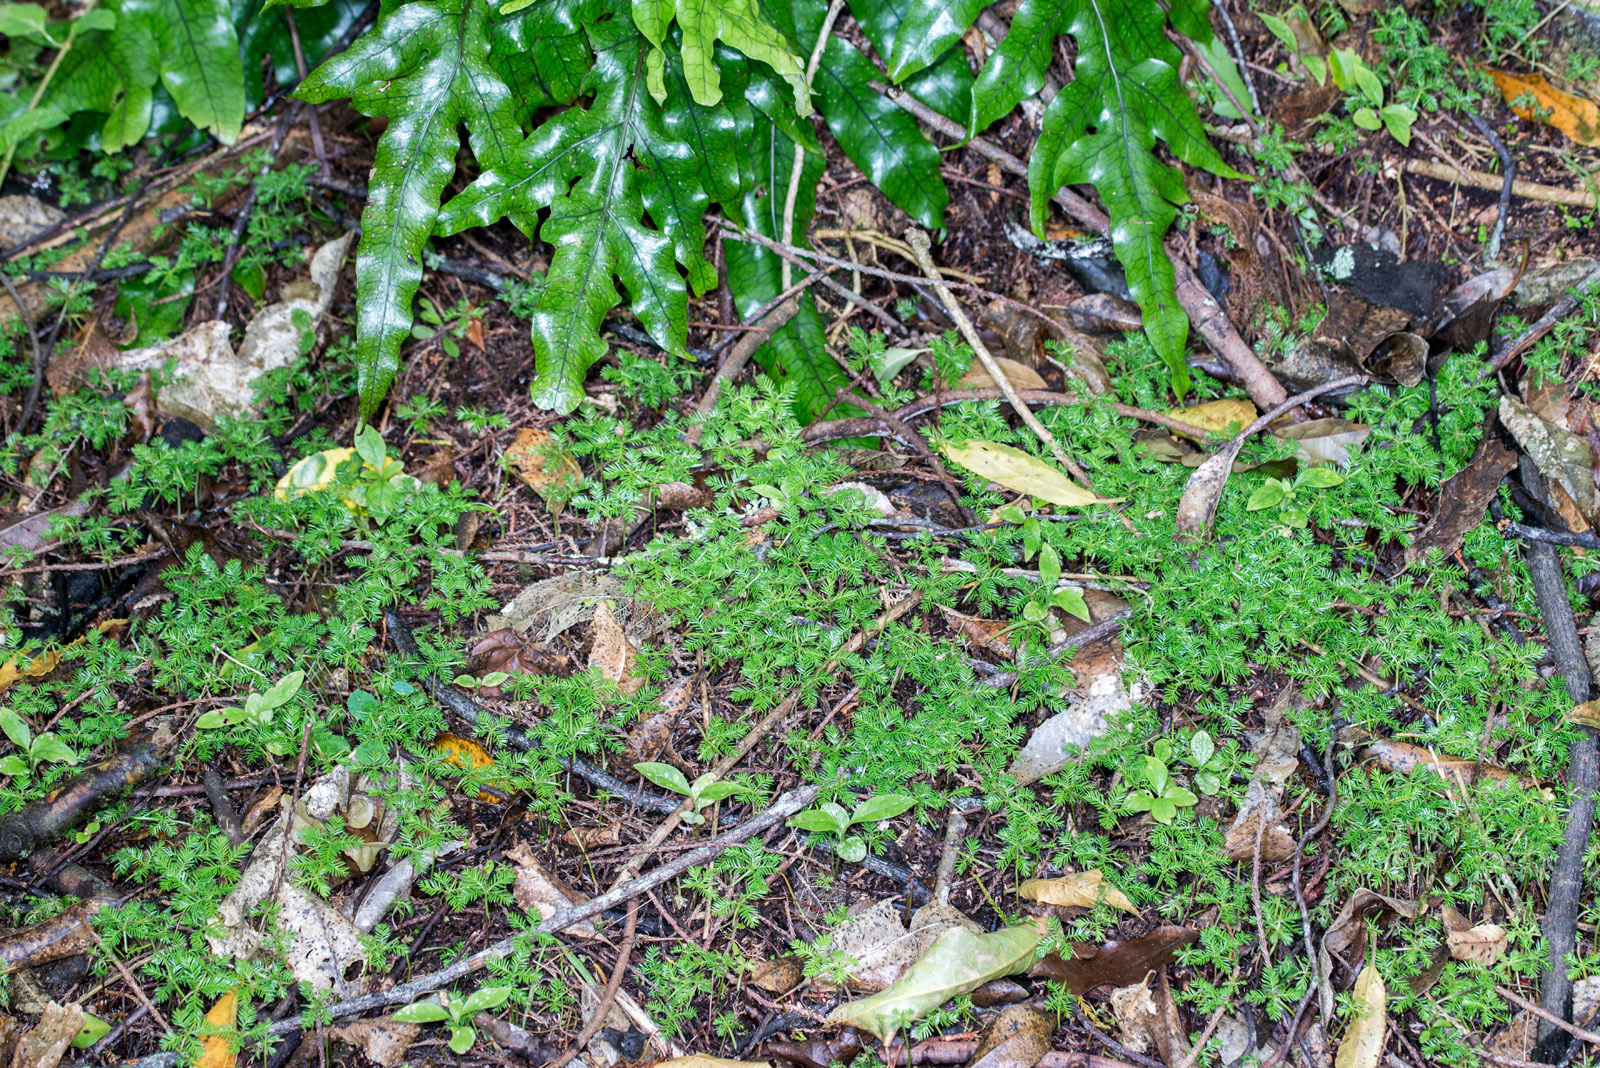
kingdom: Plantae
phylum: Tracheophyta
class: Pinopsida
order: Pinales
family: Podocarpaceae
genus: Dacrycarpus
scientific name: Dacrycarpus dacrydioides
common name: White pine
